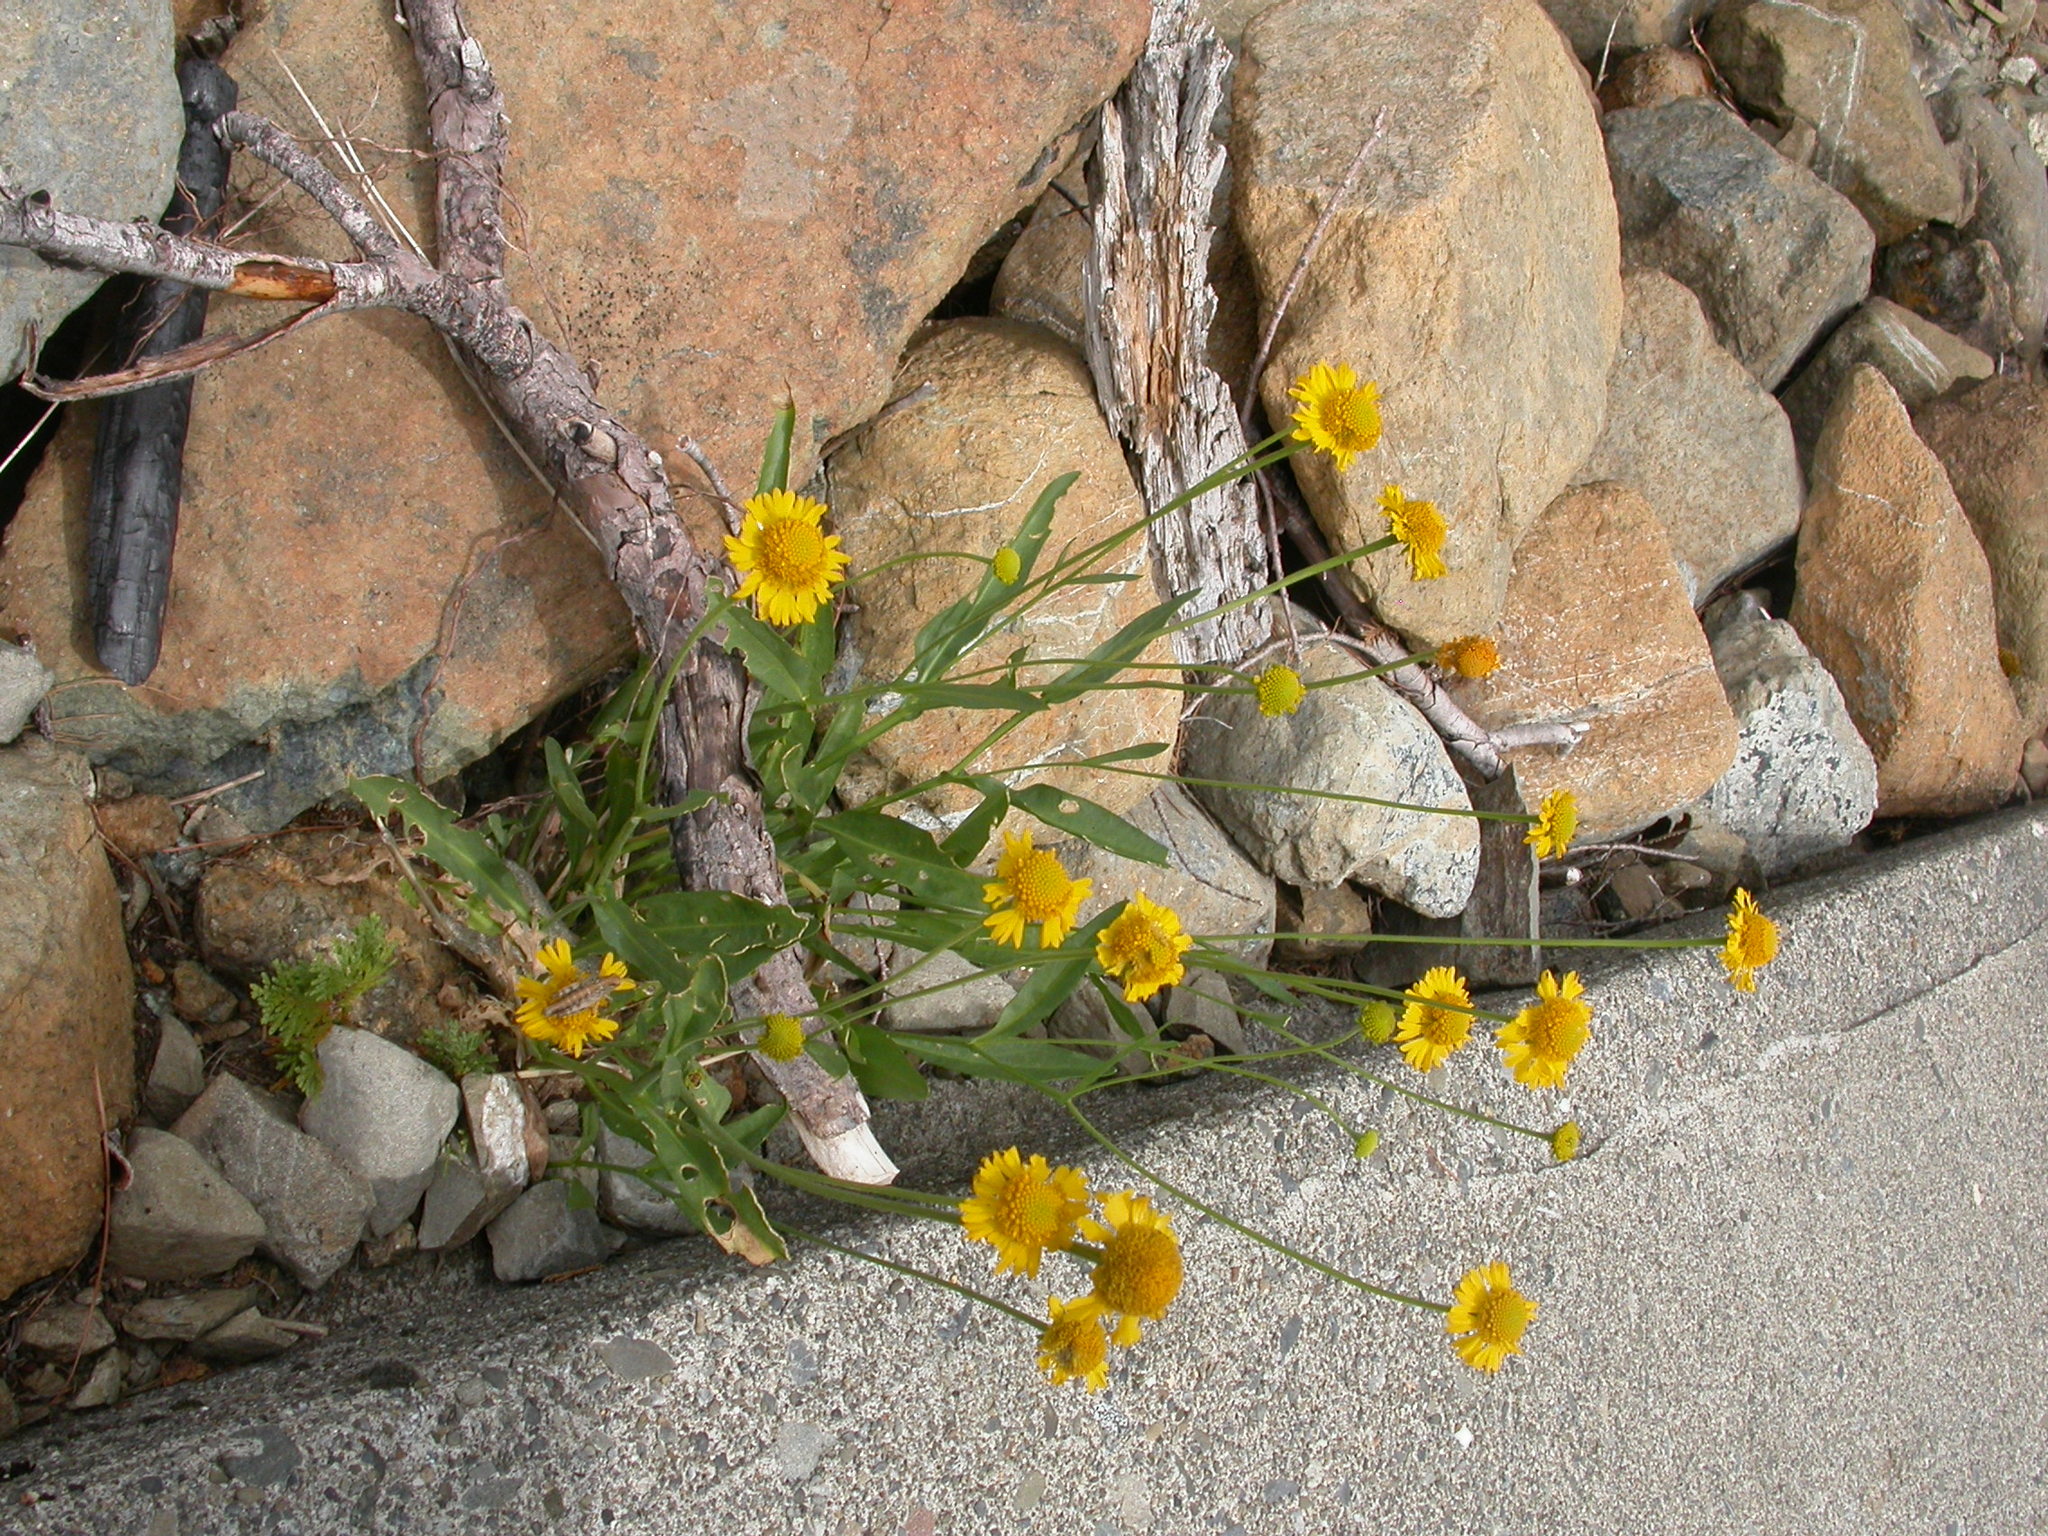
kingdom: Plantae
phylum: Tracheophyta
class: Magnoliopsida
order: Asterales
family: Asteraceae
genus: Helenium
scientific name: Helenium bigelovii
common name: Bigelow's sneezeweed
